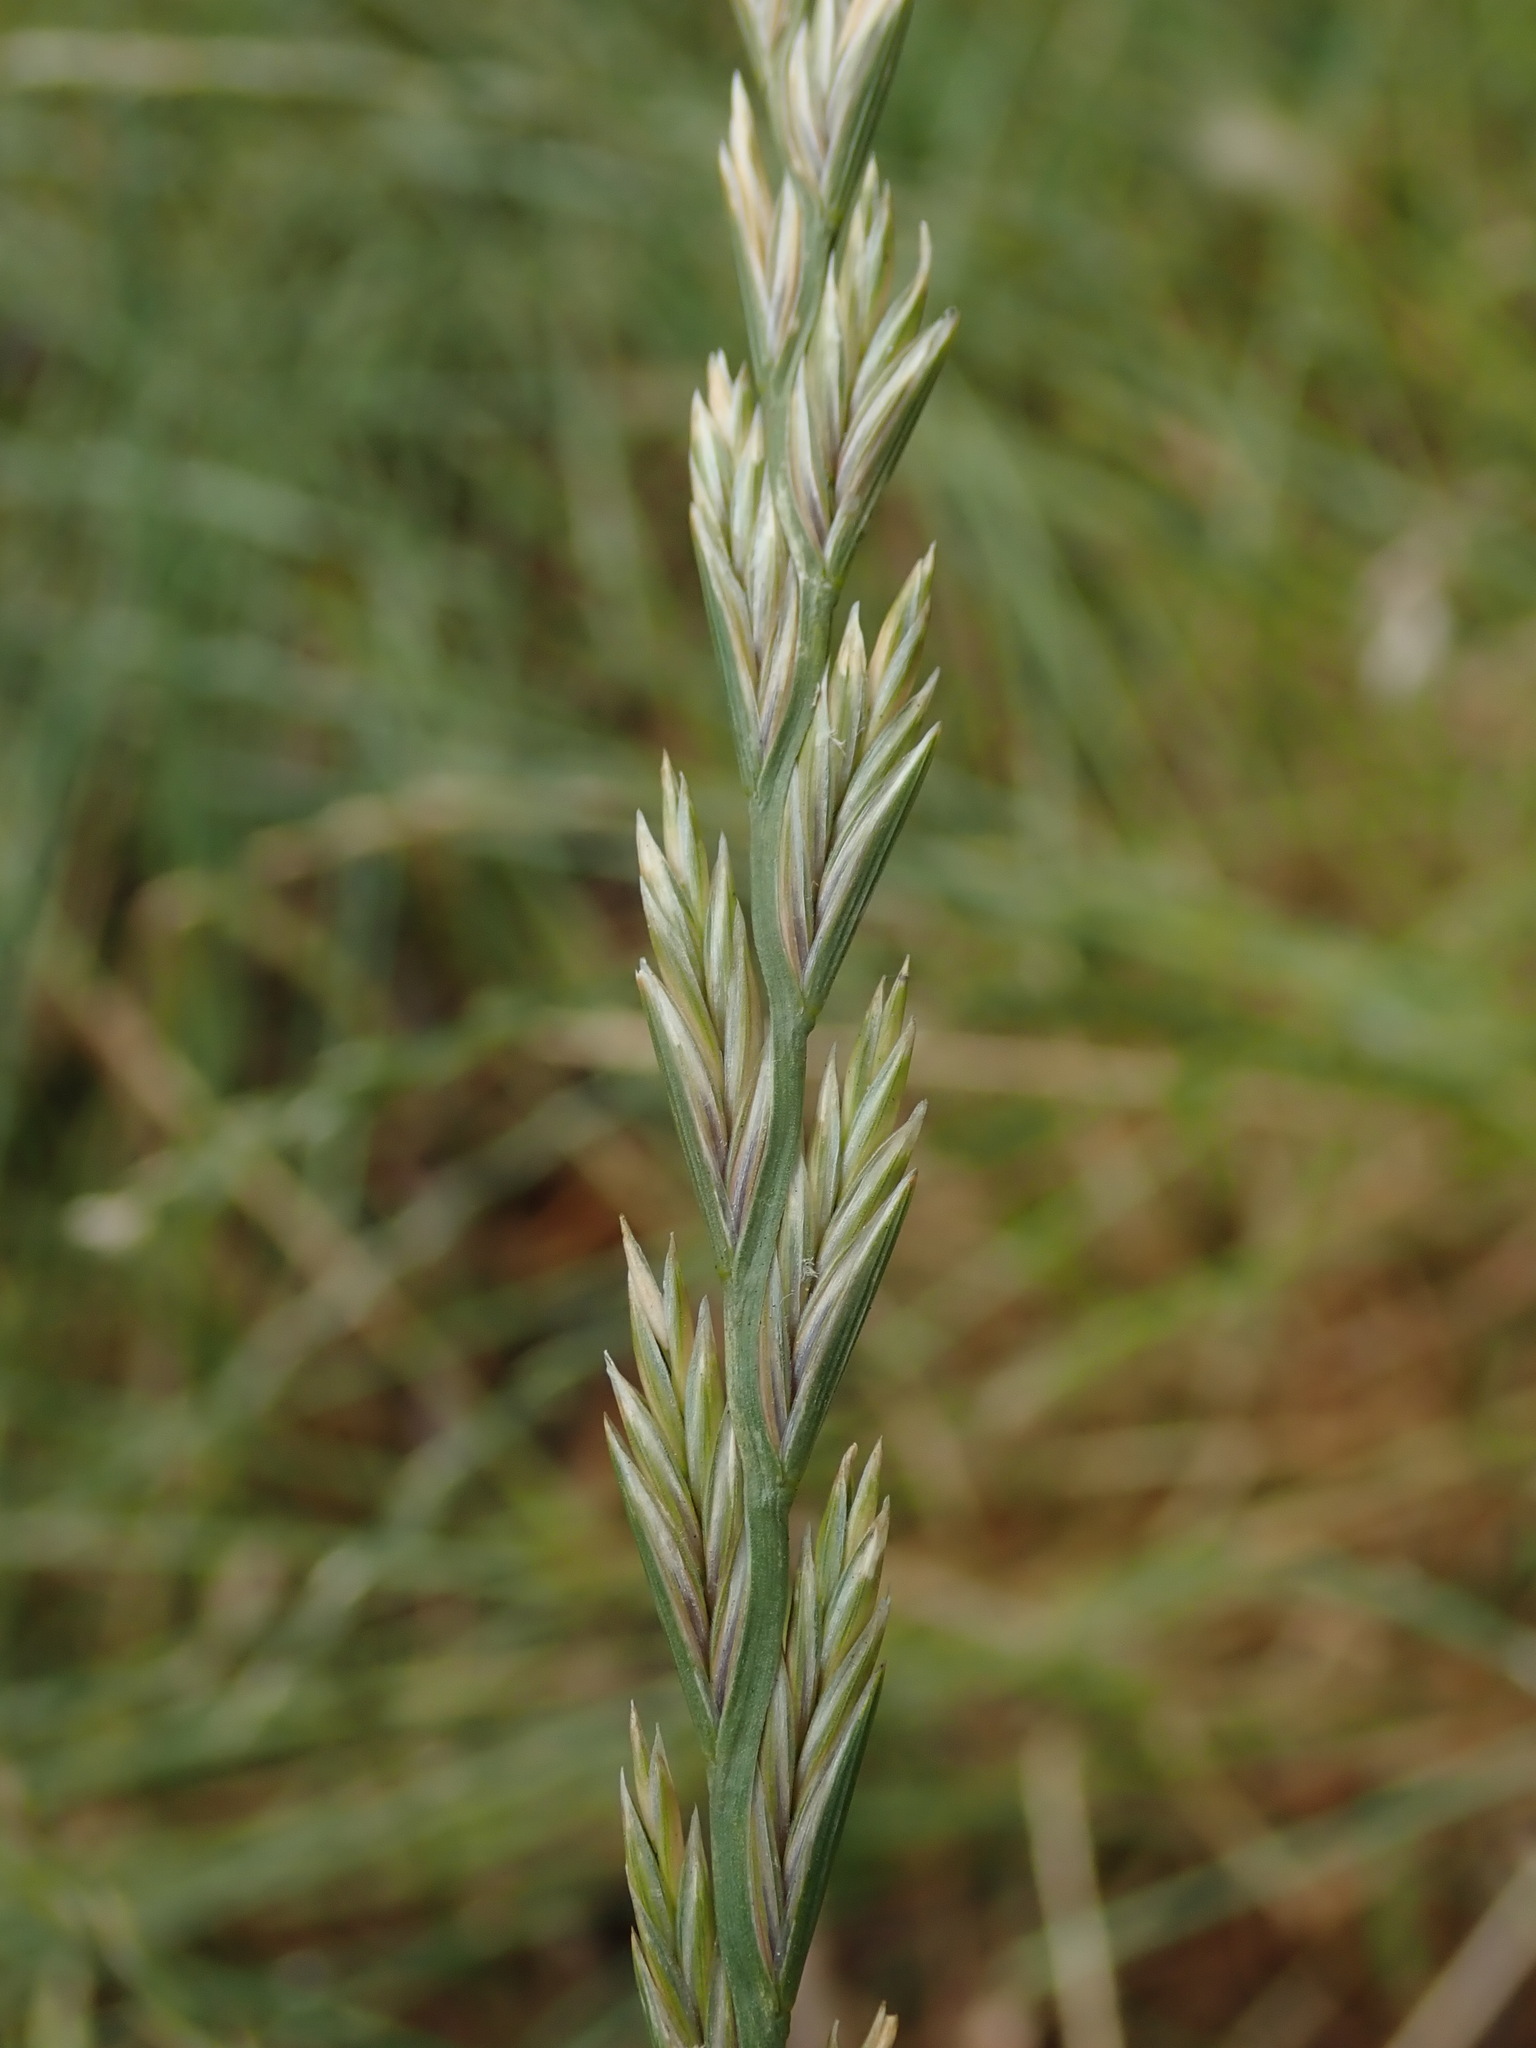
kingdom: Plantae
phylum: Tracheophyta
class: Liliopsida
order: Poales
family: Poaceae
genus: Lolium
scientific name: Lolium perenne
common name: Perennial ryegrass
